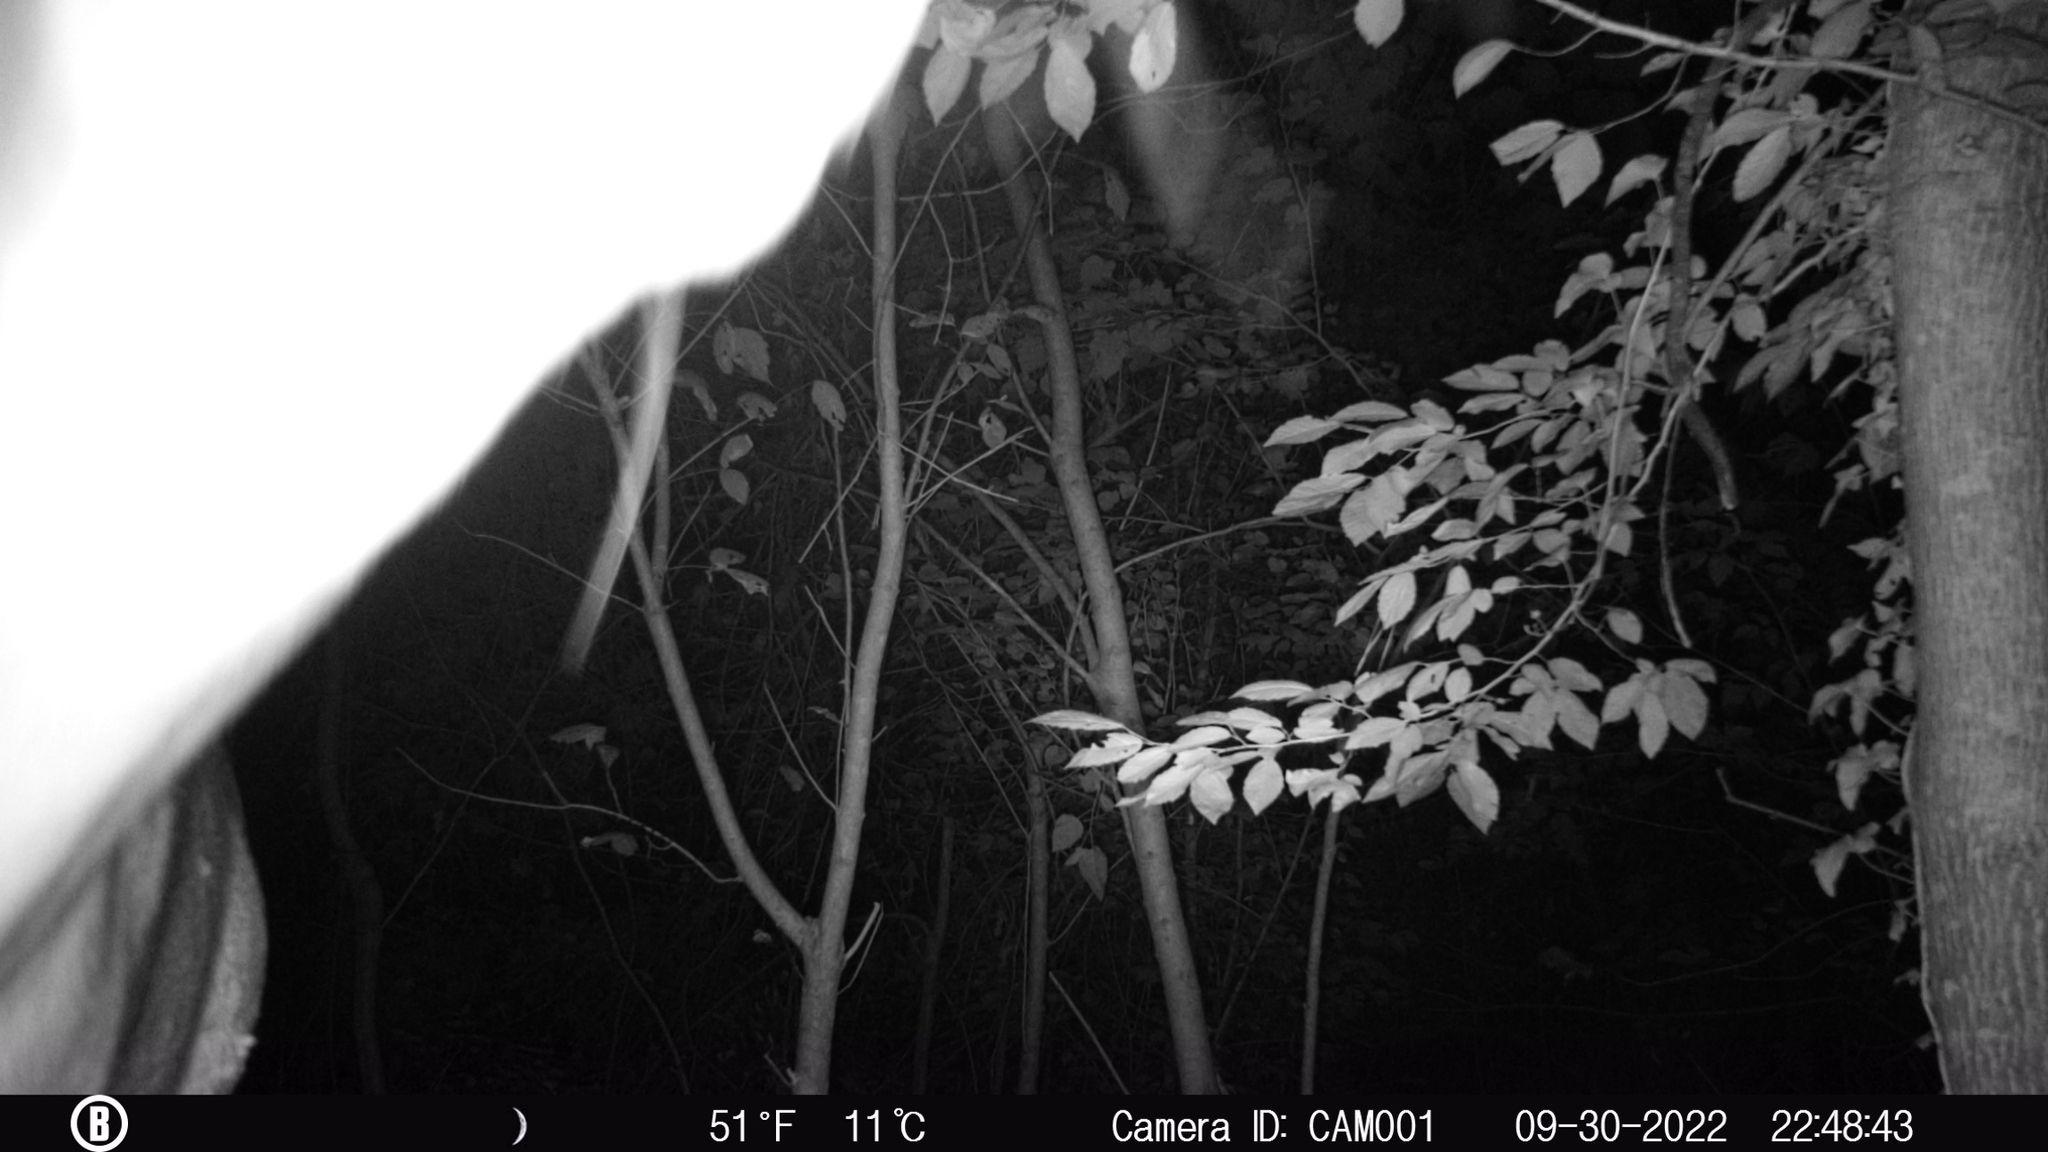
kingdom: Animalia
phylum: Chordata
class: Mammalia
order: Artiodactyla
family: Cervidae
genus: Odocoileus
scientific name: Odocoileus virginianus
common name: White-tailed deer
